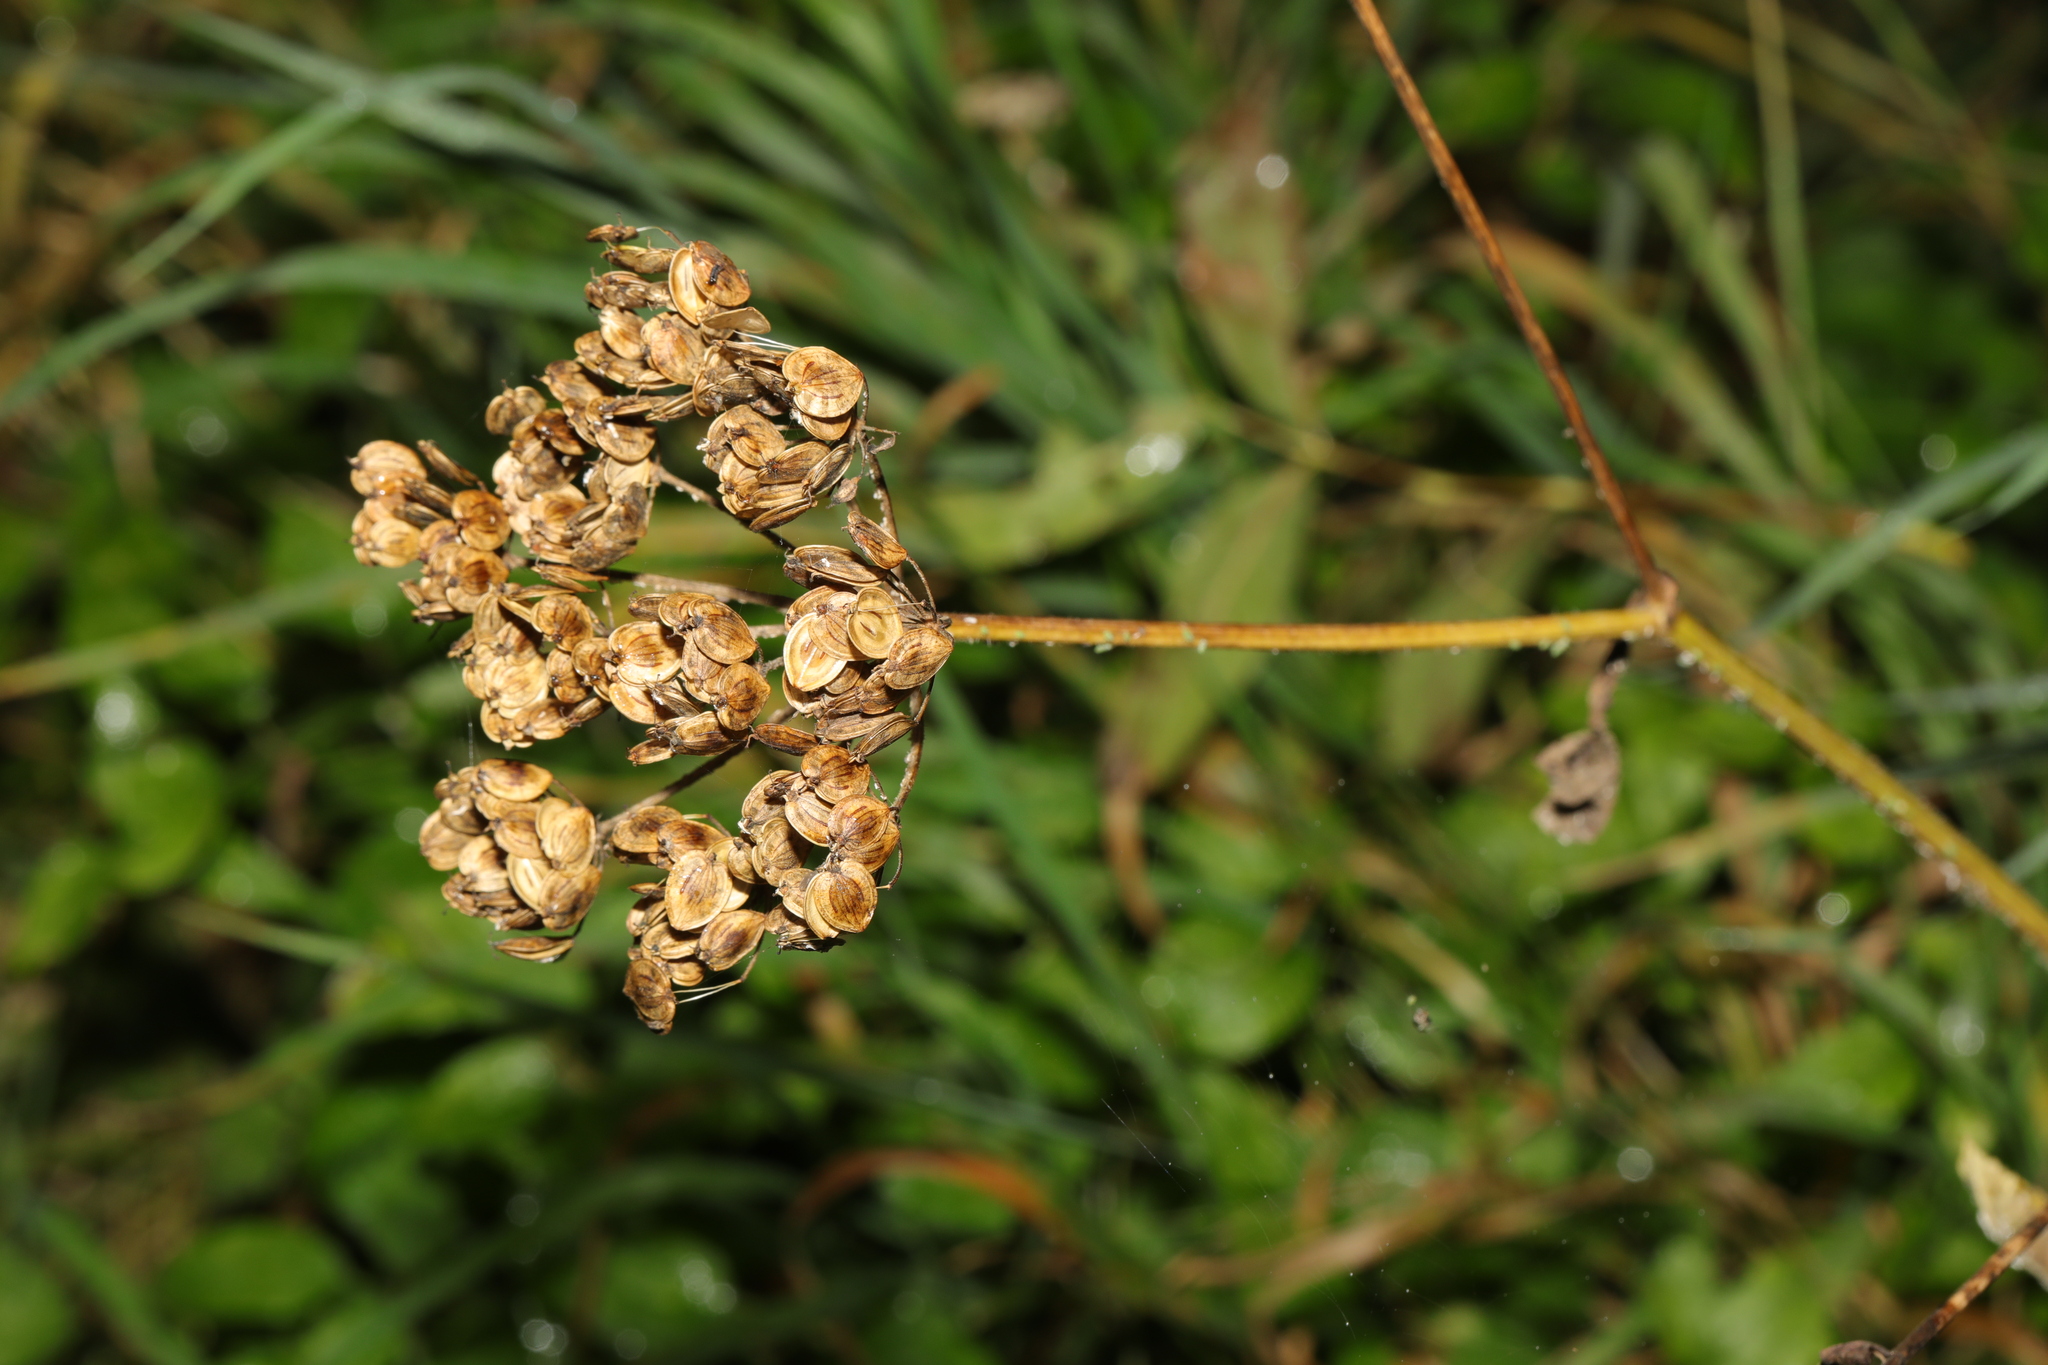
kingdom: Plantae
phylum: Tracheophyta
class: Magnoliopsida
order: Apiales
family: Apiaceae
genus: Heracleum
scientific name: Heracleum sphondylium
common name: Hogweed
